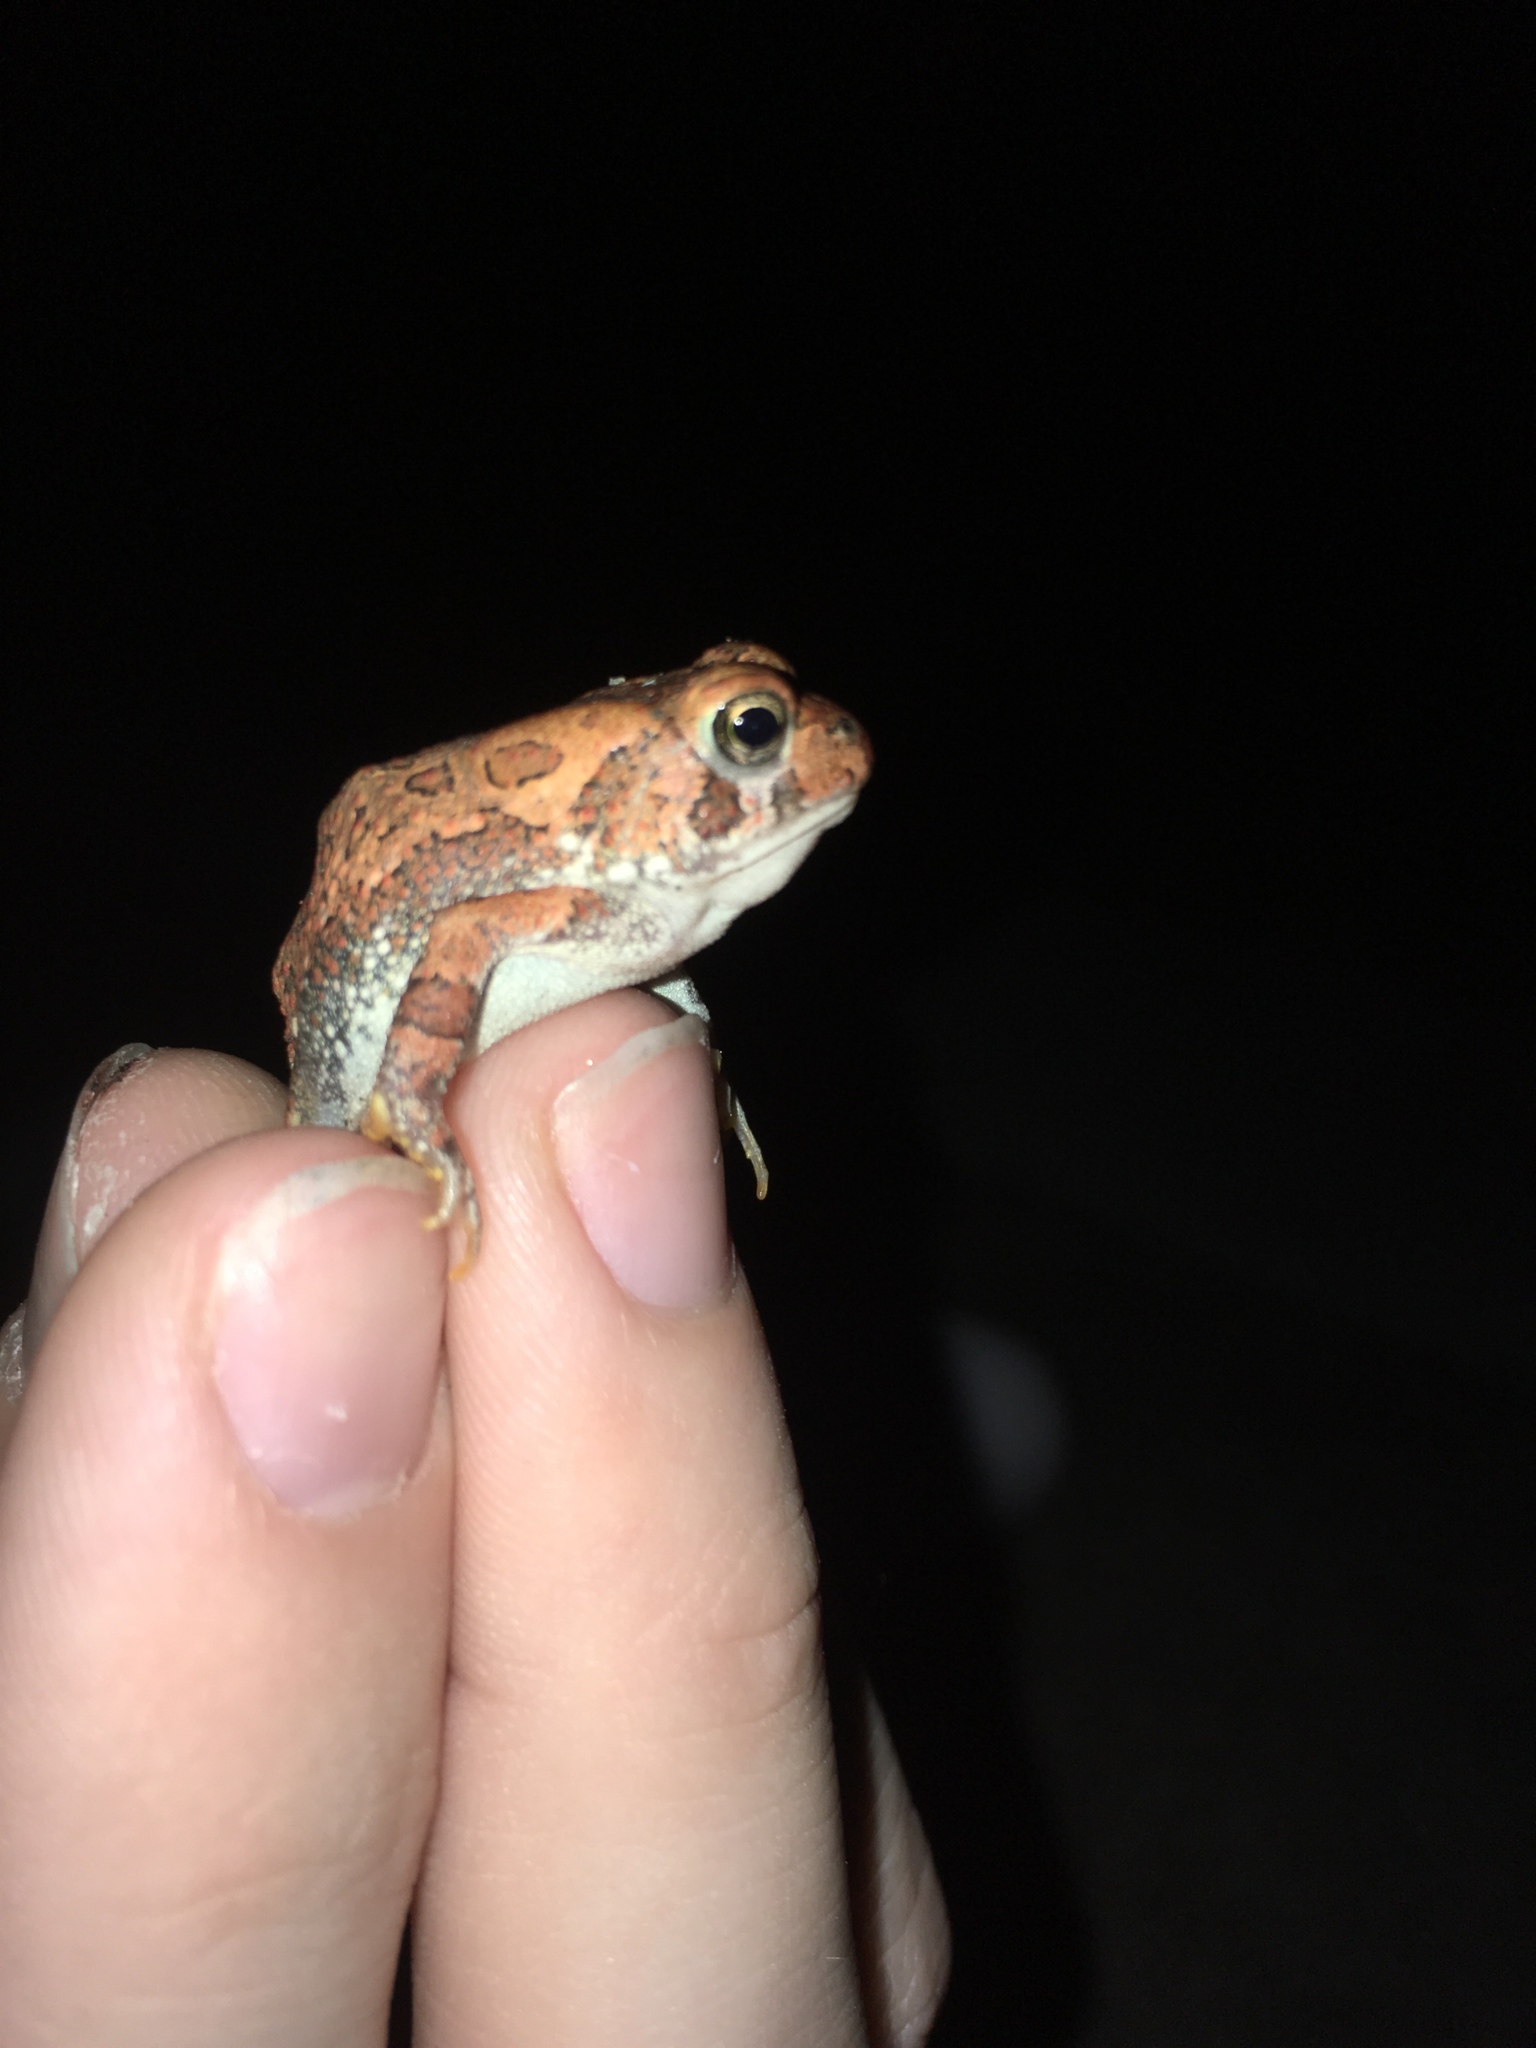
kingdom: Animalia
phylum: Chordata
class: Amphibia
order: Anura
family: Bufonidae
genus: Anaxyrus
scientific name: Anaxyrus fowleri
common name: Fowler's toad
